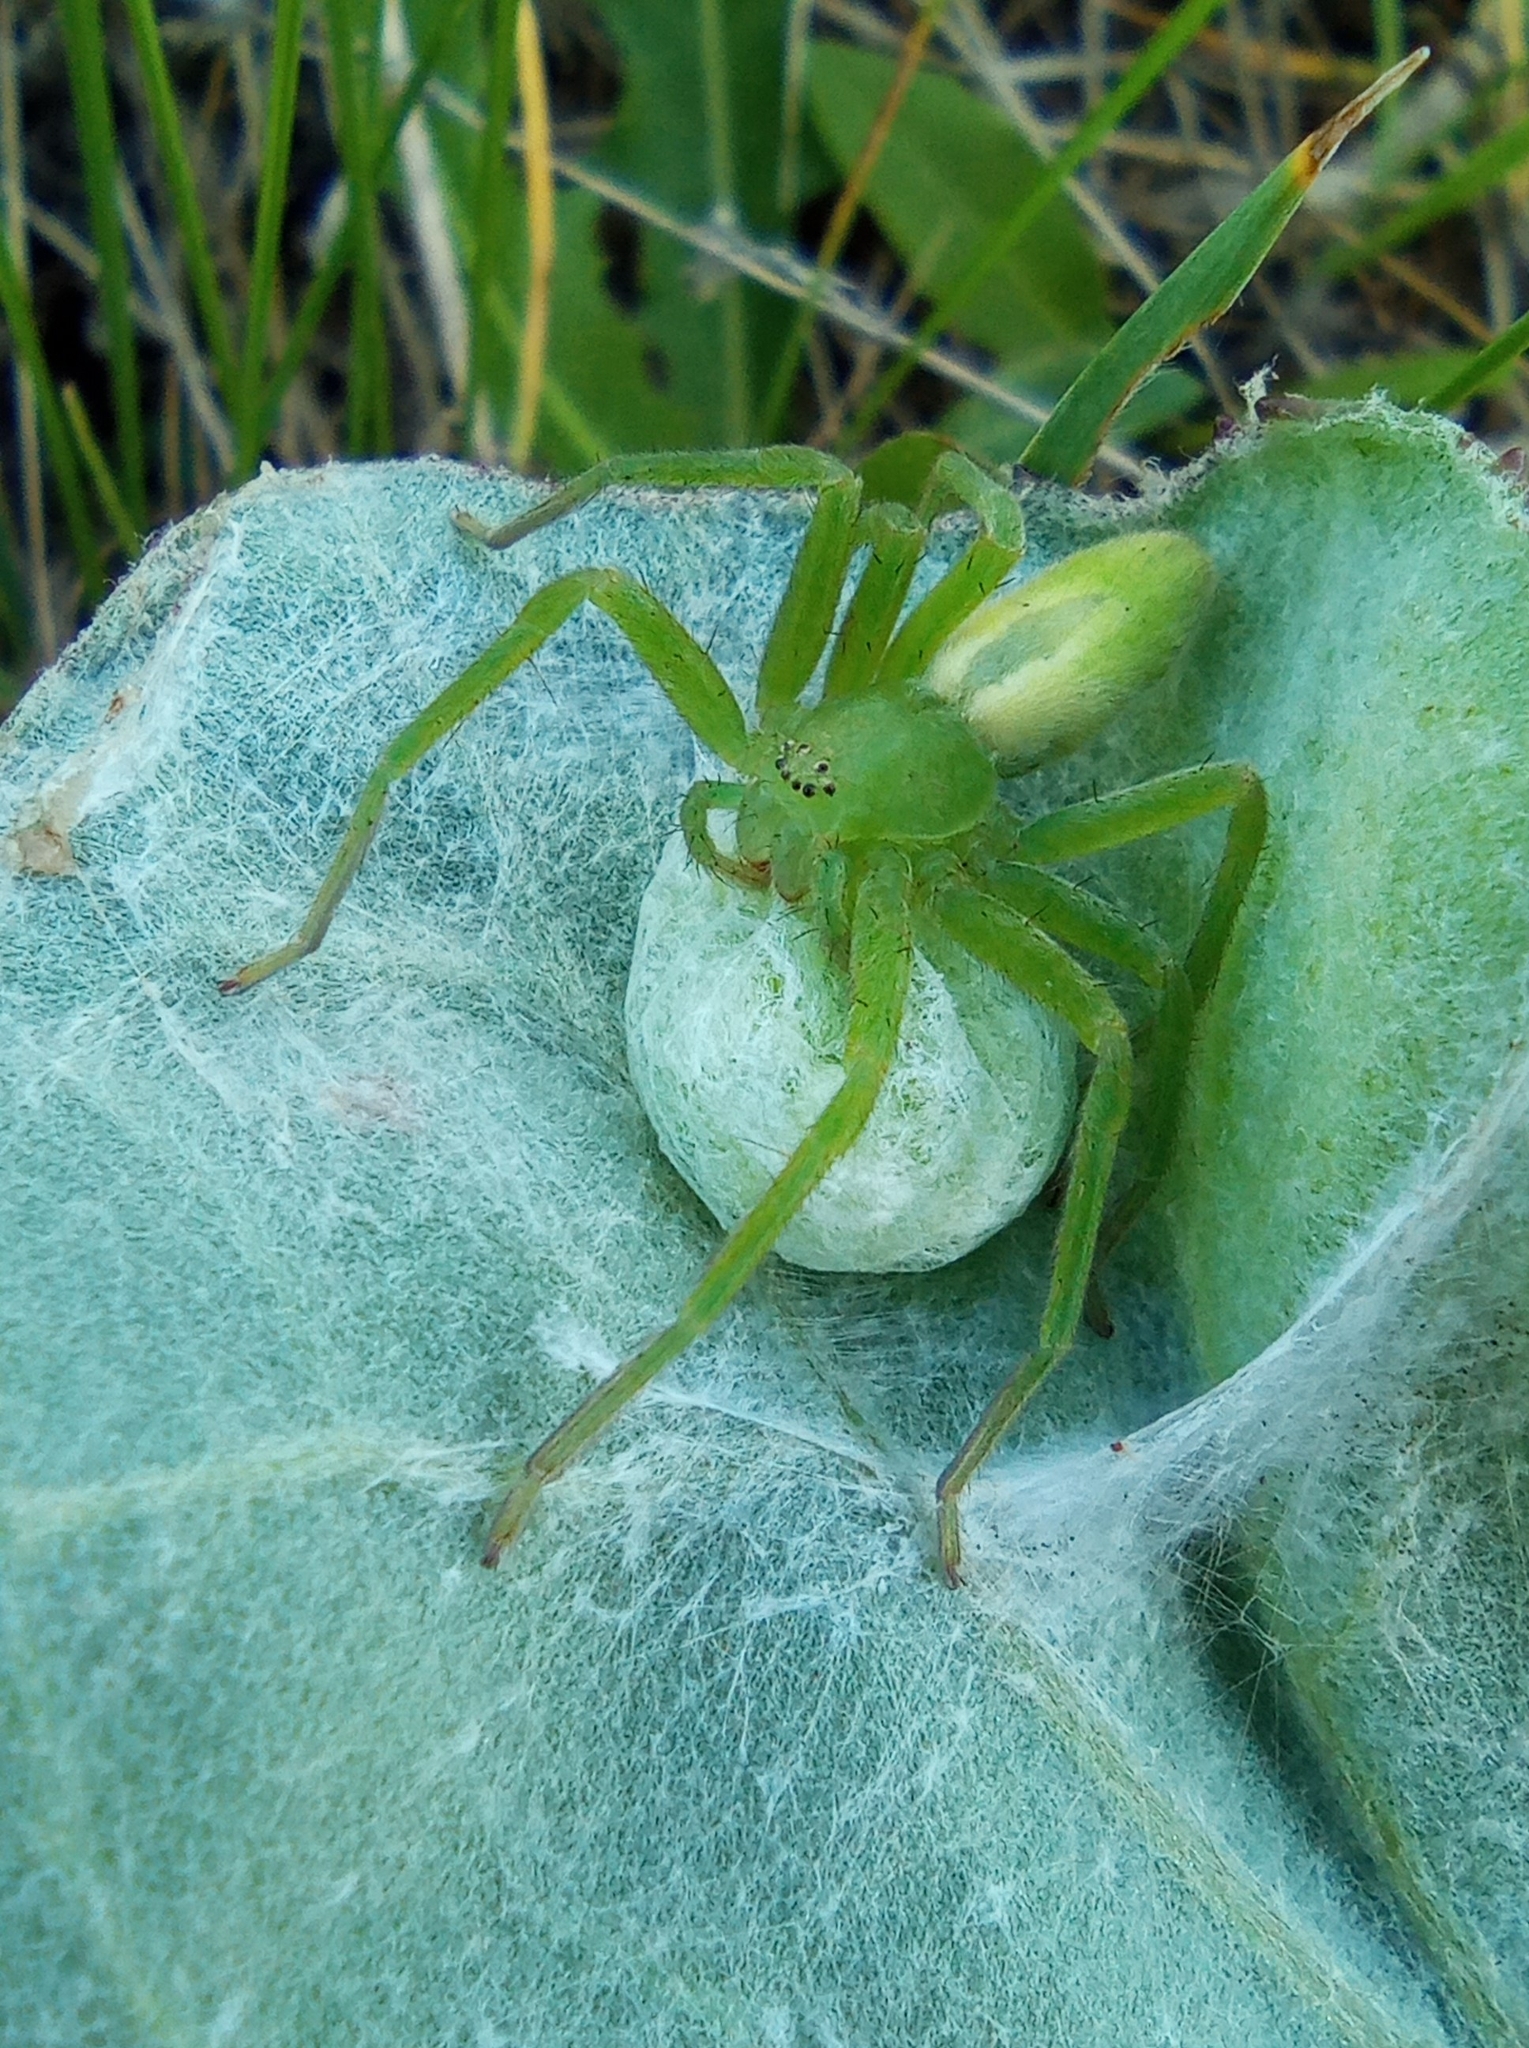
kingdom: Animalia
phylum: Arthropoda
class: Arachnida
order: Araneae
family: Sparassidae
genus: Micrommata
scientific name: Micrommata virescens
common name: Green spider
